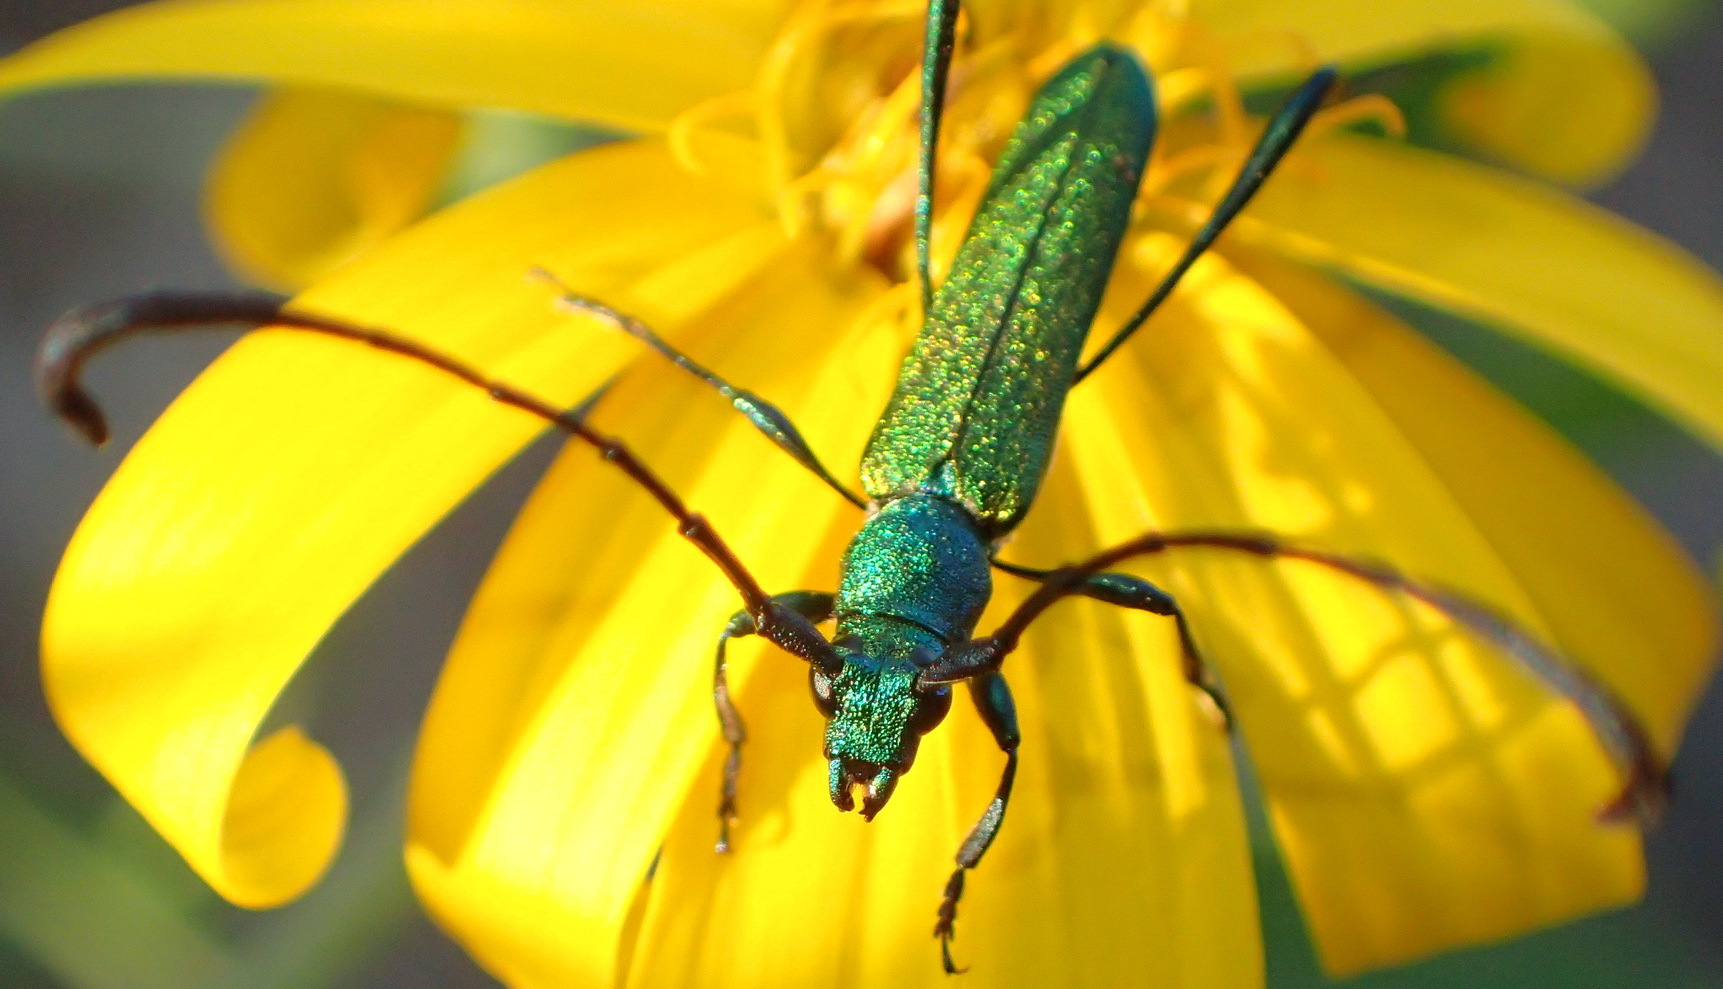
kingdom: Animalia
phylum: Arthropoda
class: Insecta
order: Coleoptera
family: Cerambycidae
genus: Hypocrites
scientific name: Hypocrites
